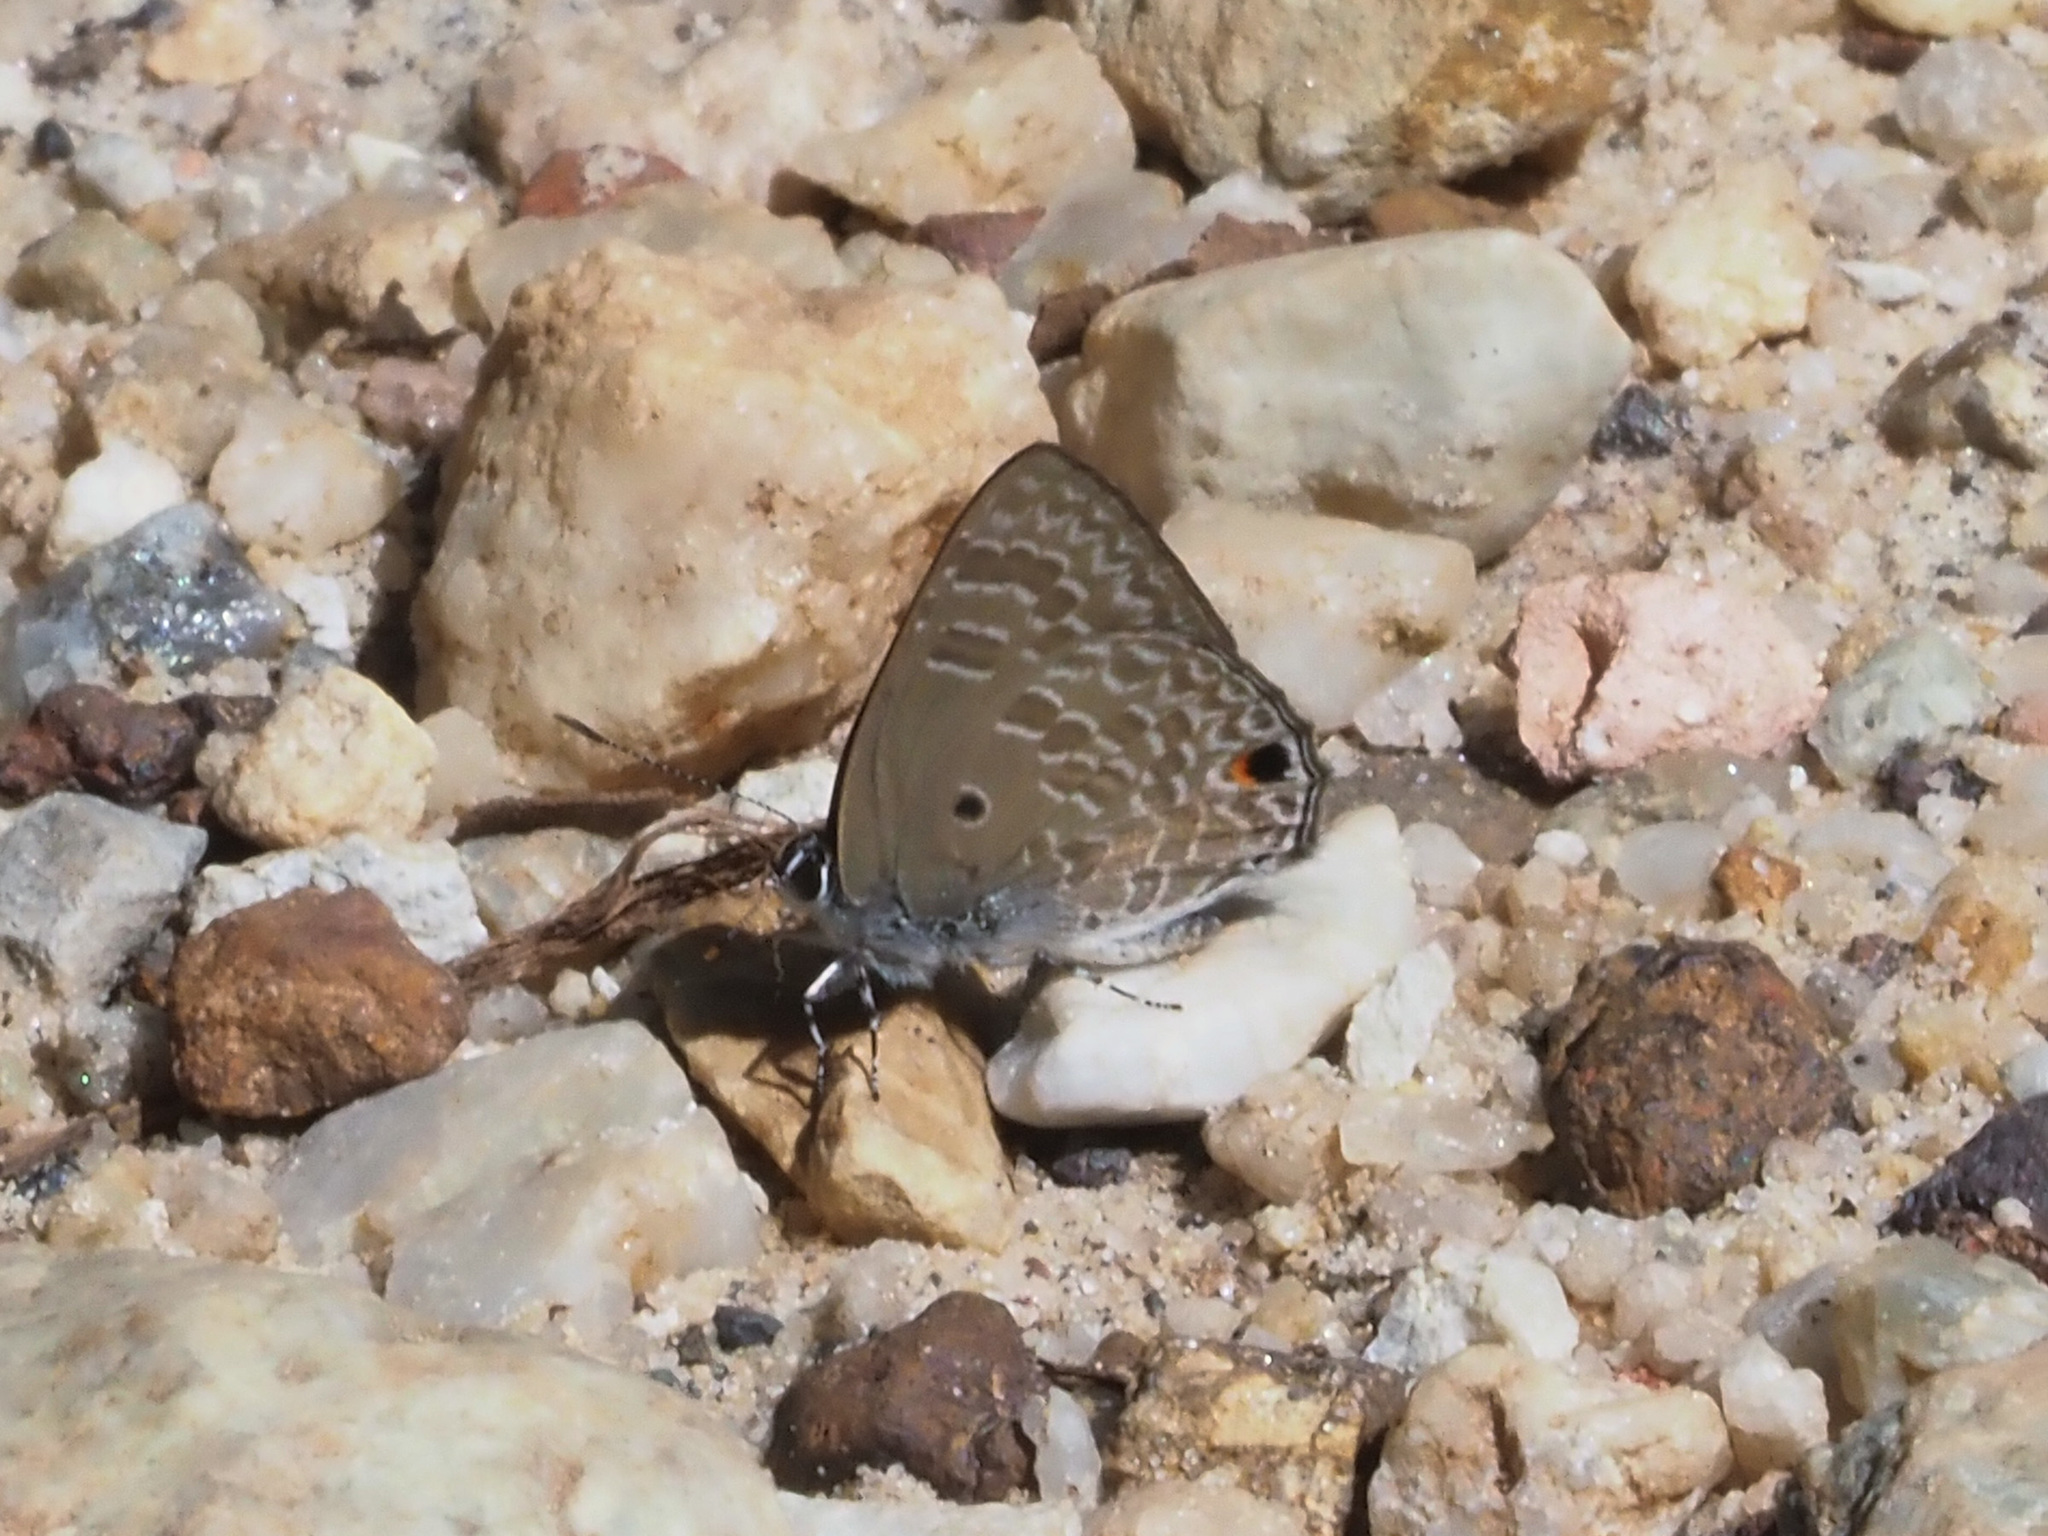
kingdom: Animalia
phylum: Arthropoda
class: Insecta
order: Lepidoptera
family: Lycaenidae
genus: Anthene
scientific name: Anthene lycaenina
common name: Pointed ciliate blue
